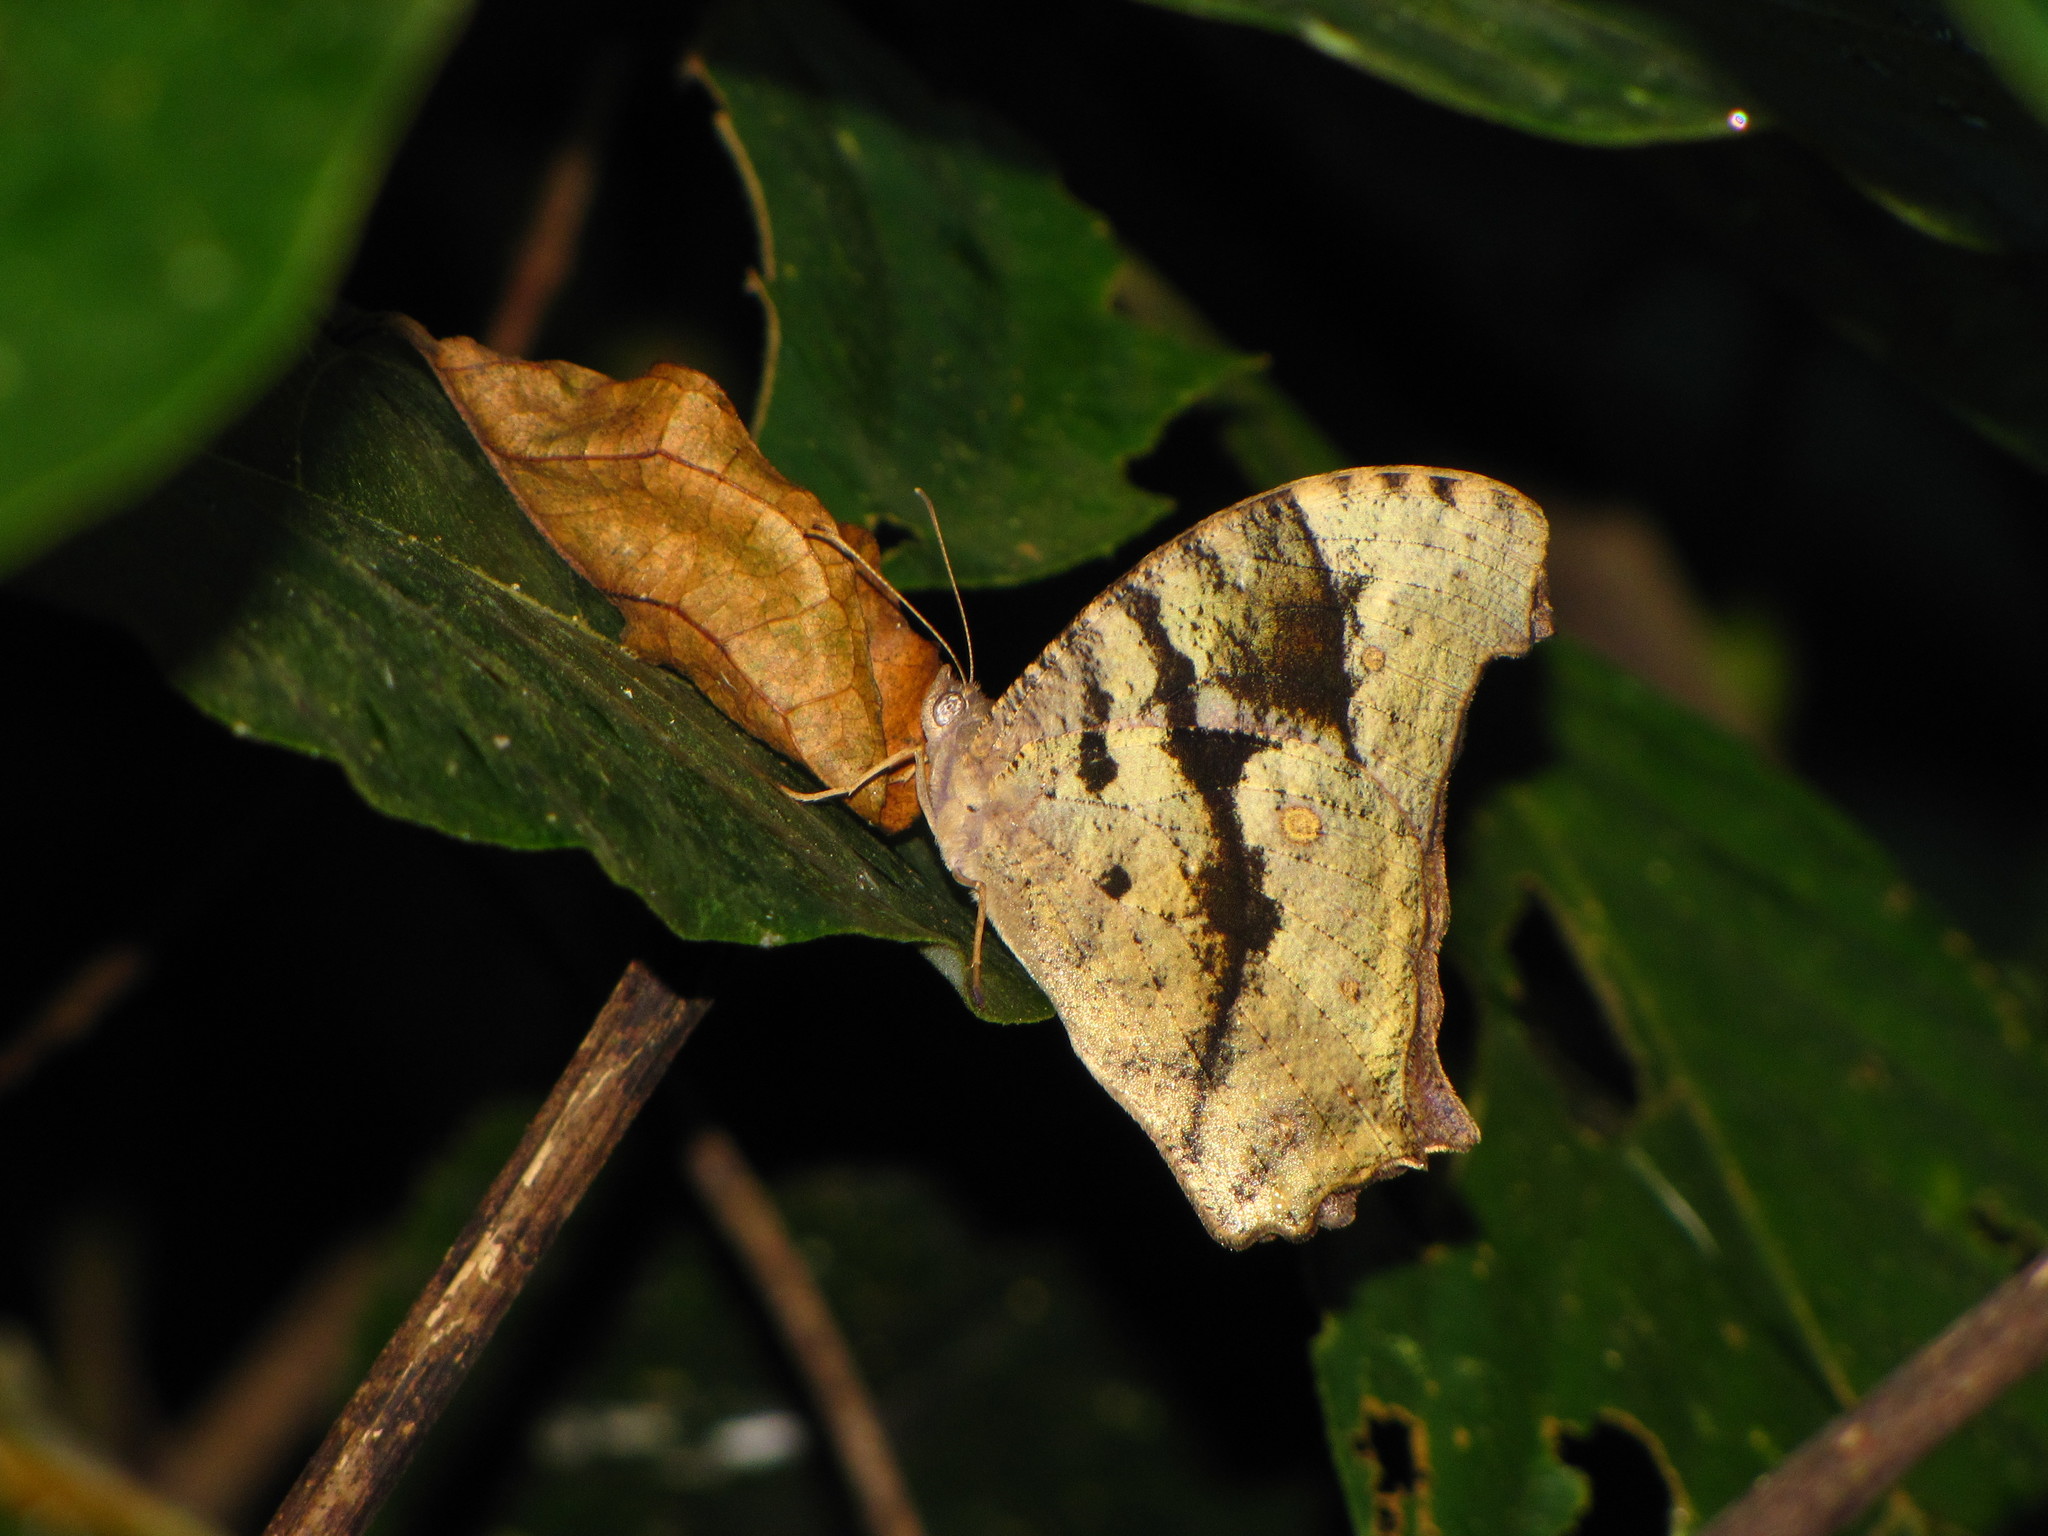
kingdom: Animalia
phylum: Arthropoda
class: Insecta
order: Lepidoptera
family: Nymphalidae
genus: Melanitis
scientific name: Melanitis leda
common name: Twilight brown
